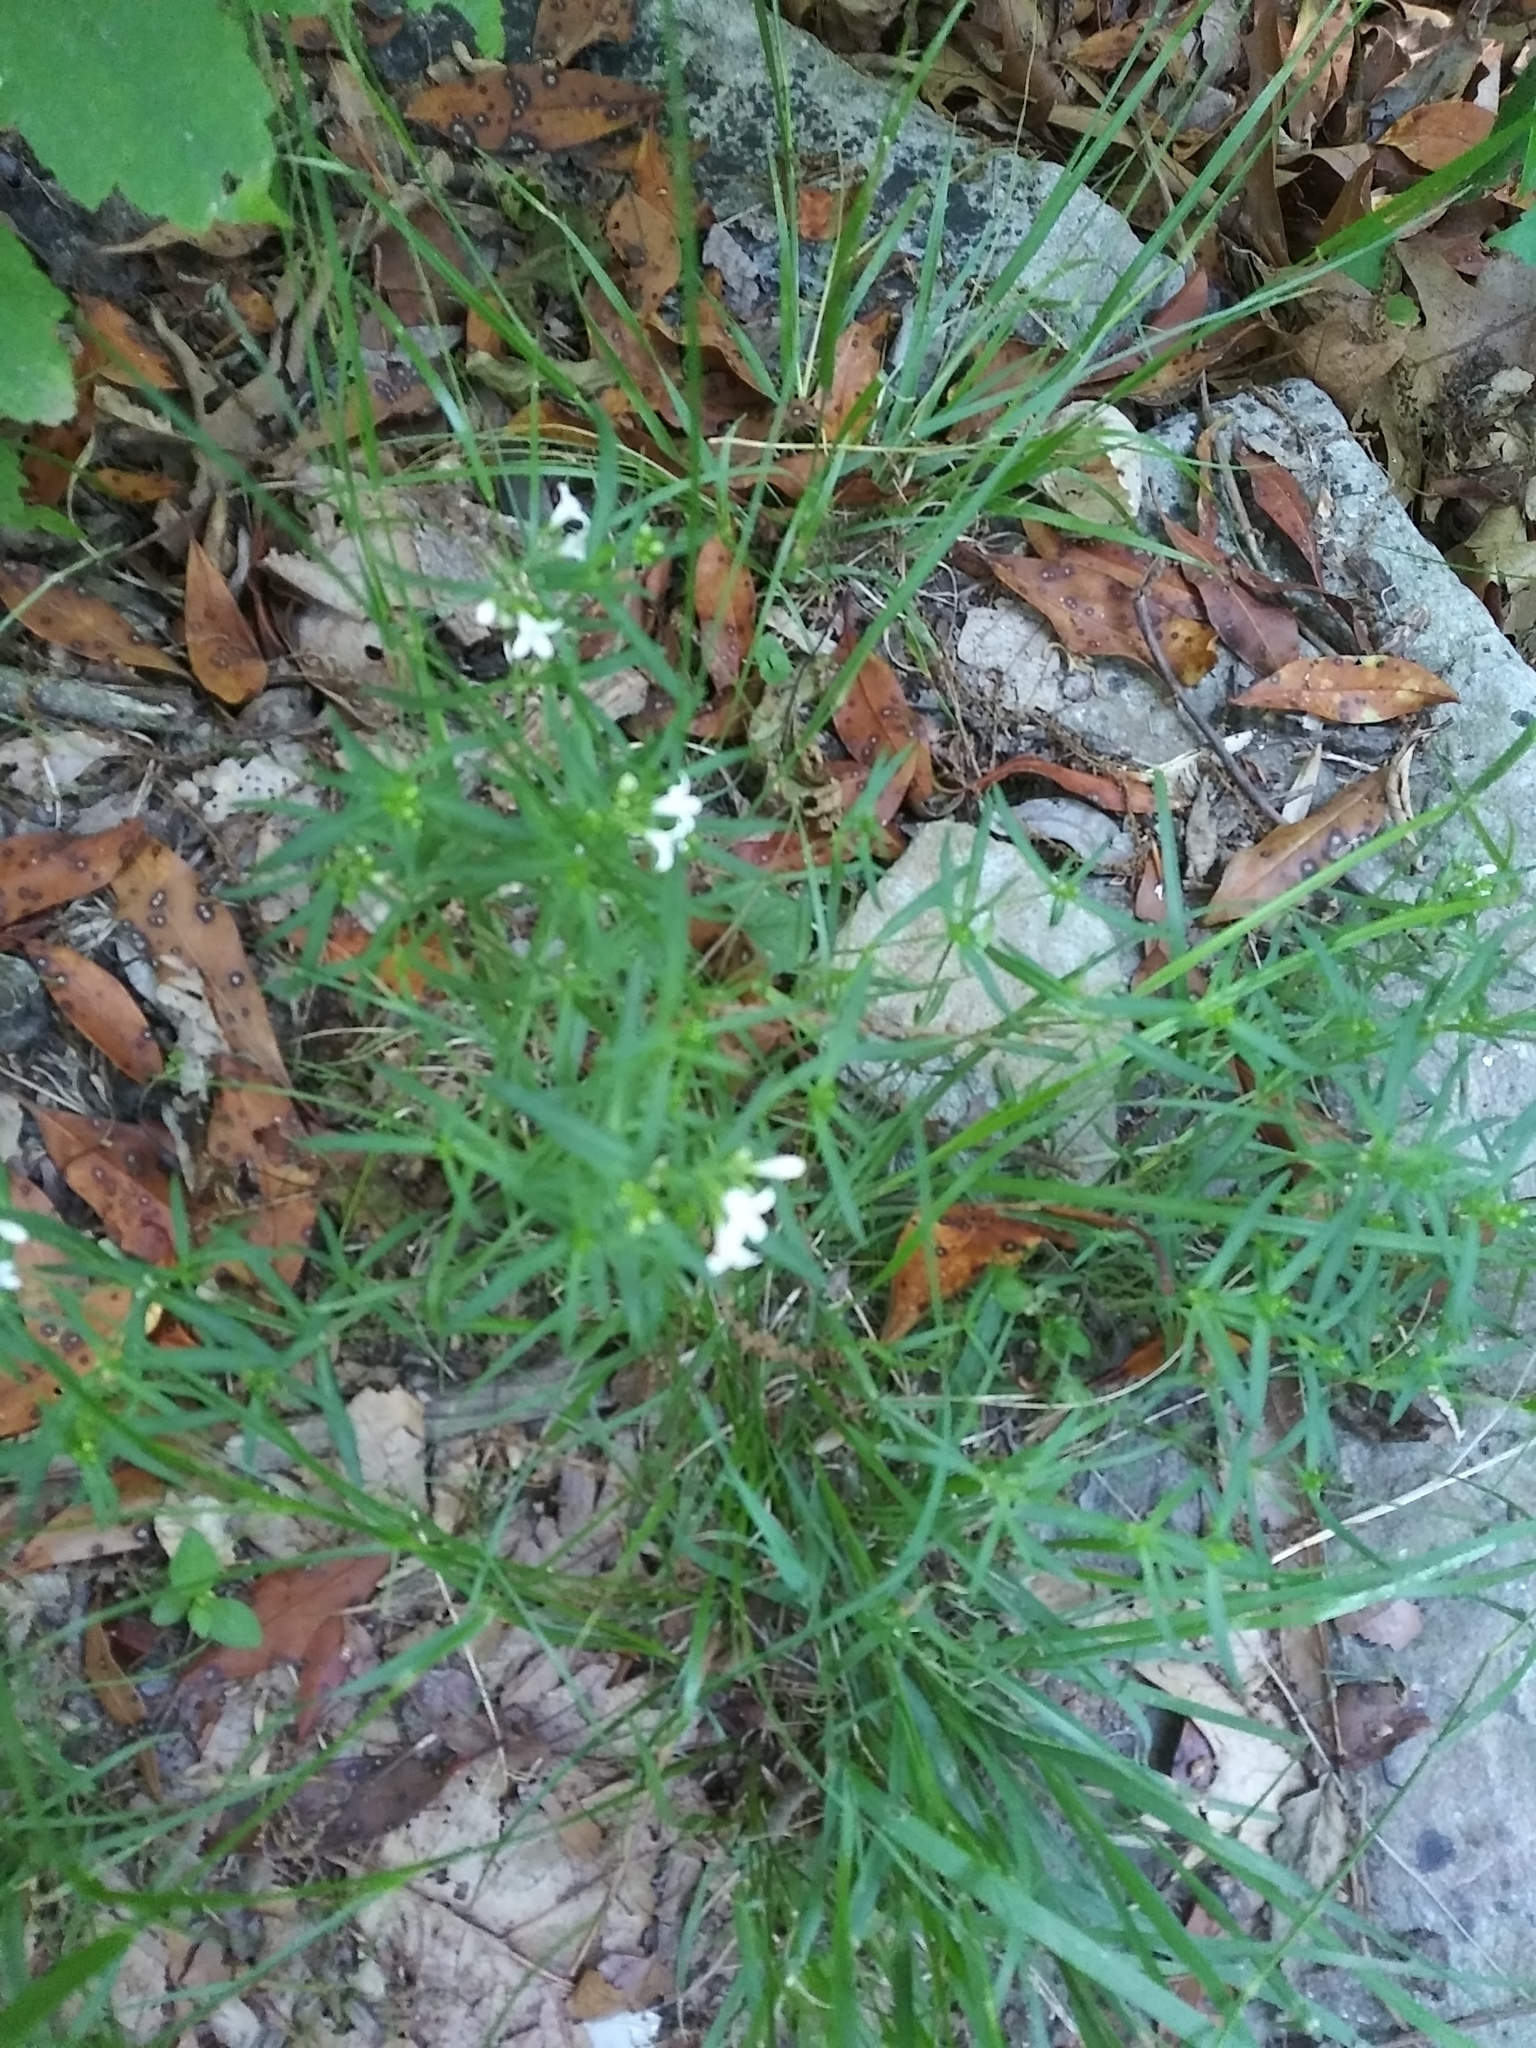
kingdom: Plantae
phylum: Tracheophyta
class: Magnoliopsida
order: Gentianales
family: Rubiaceae
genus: Houstonia
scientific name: Houstonia longifolia
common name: Long-leaved bluets
